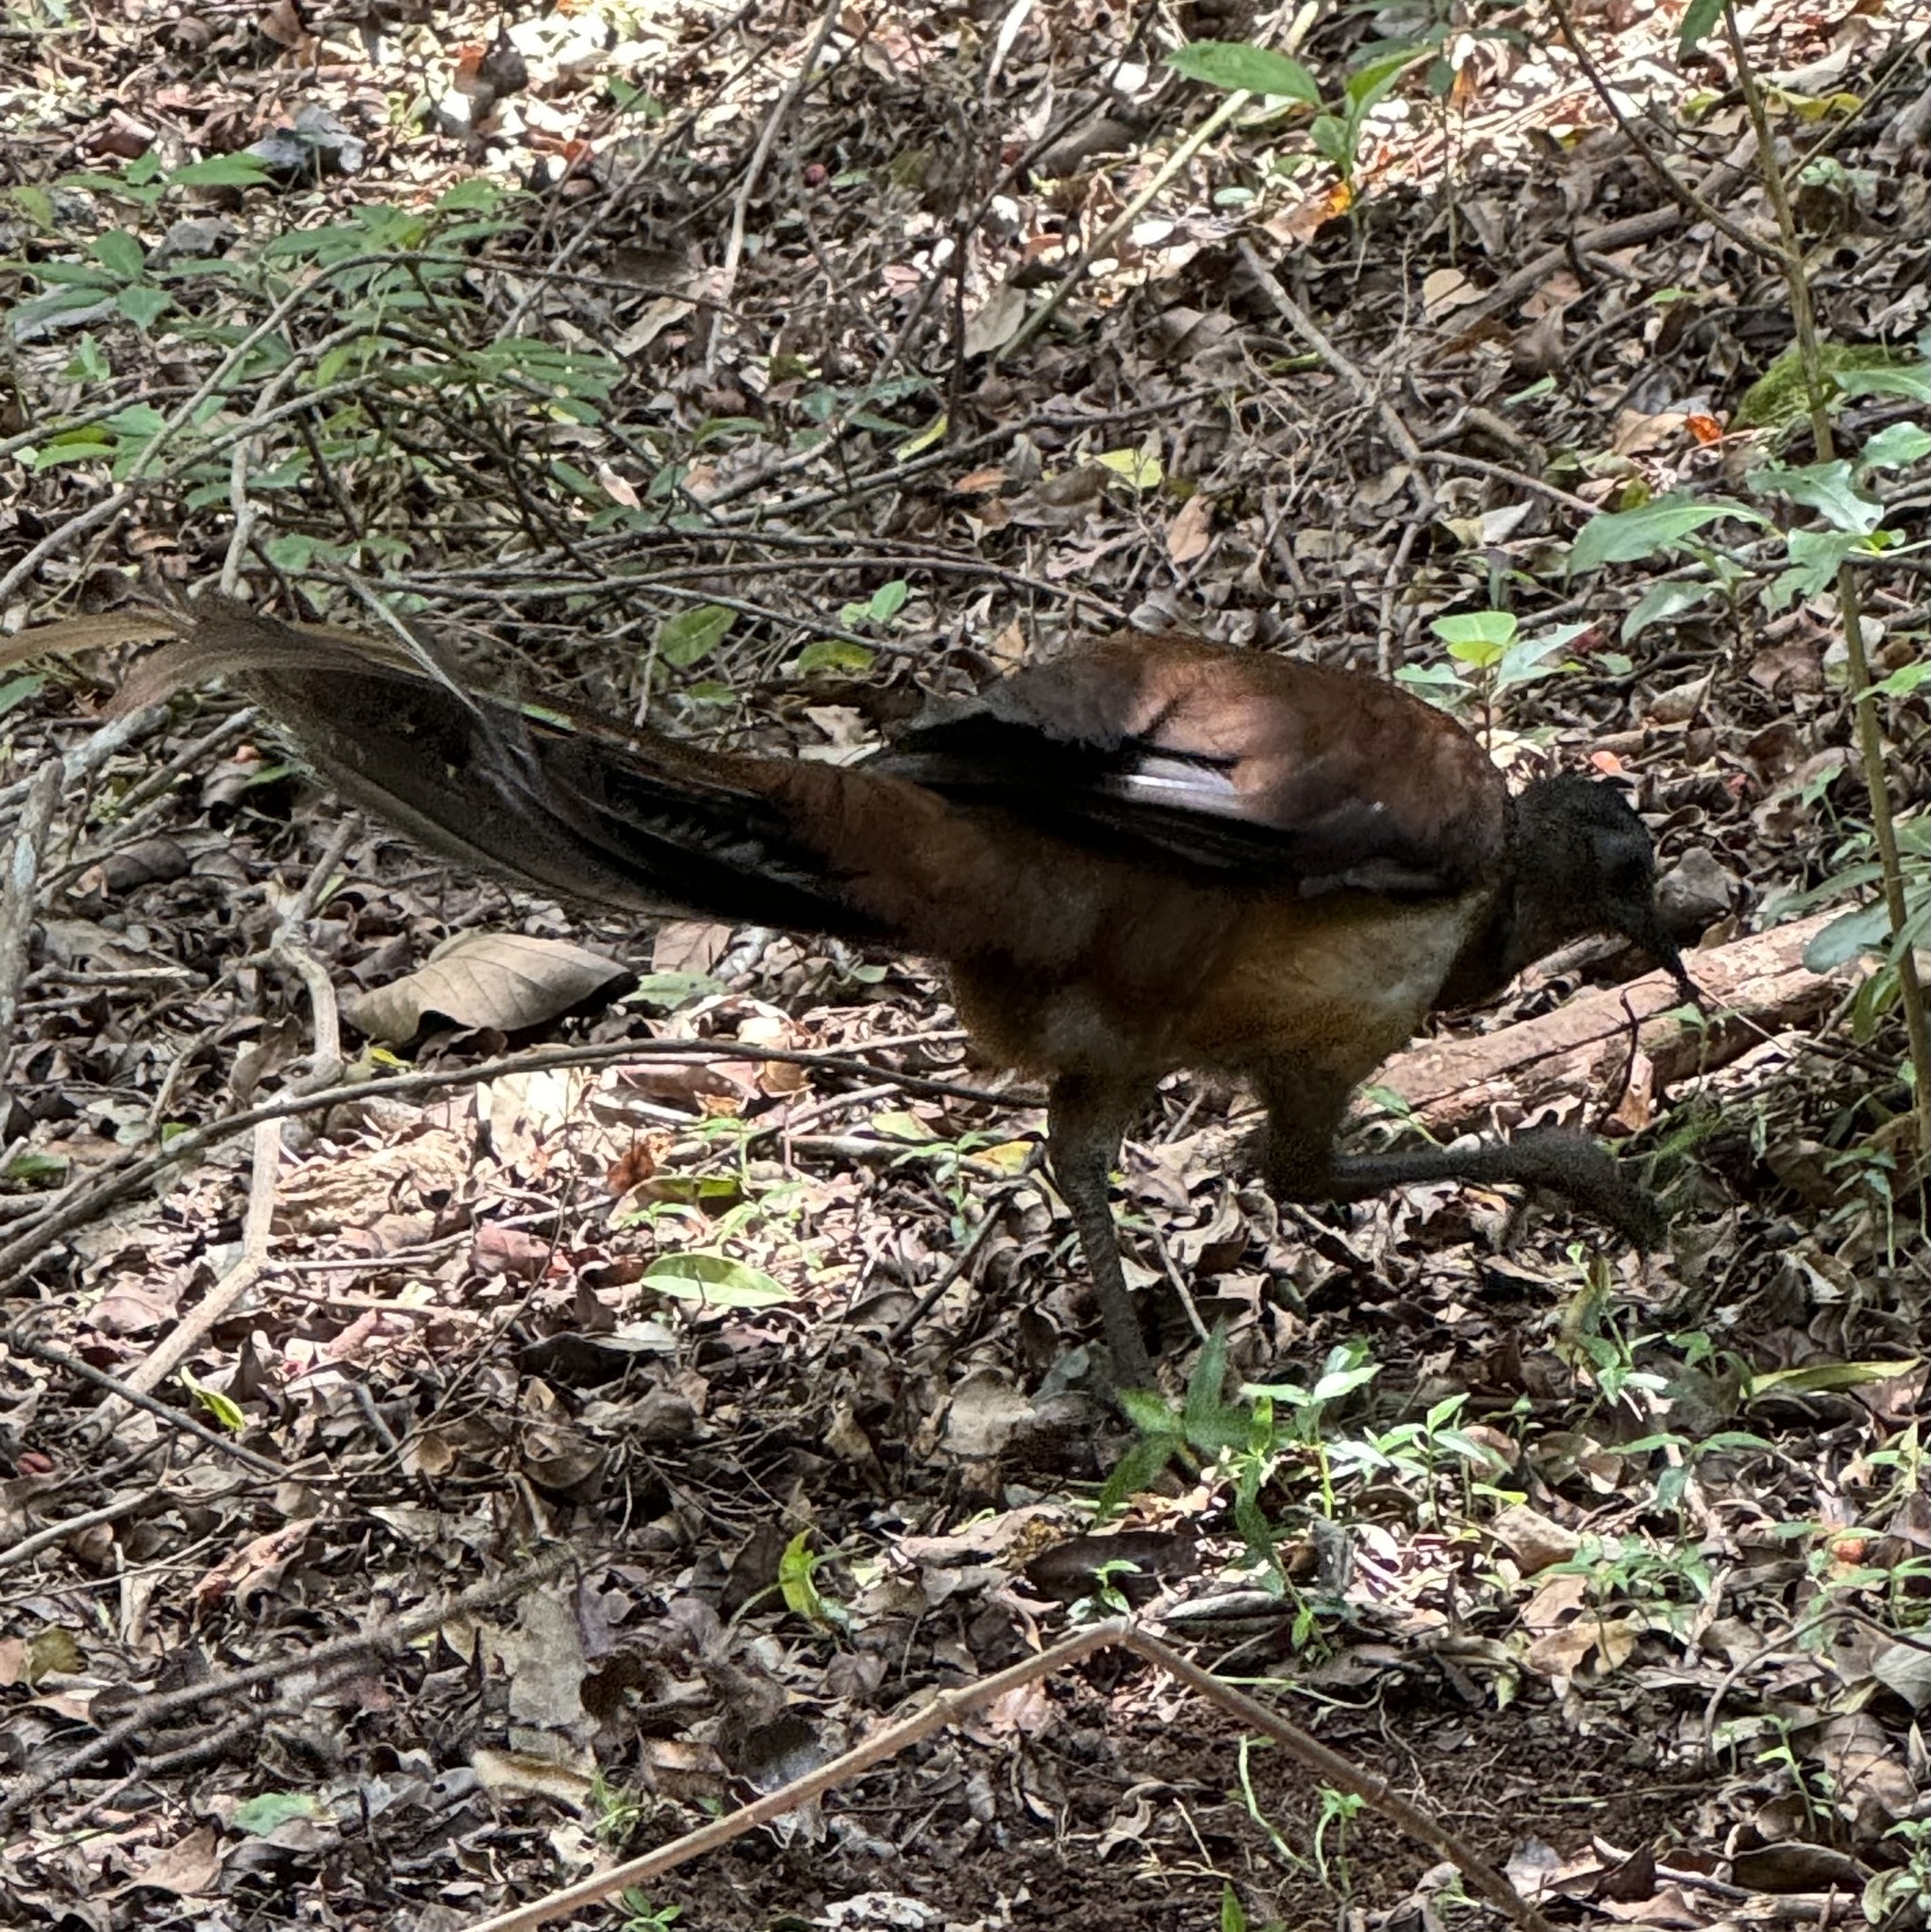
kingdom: Animalia
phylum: Chordata
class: Aves
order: Passeriformes
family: Menuridae
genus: Menura
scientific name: Menura alberti
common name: Albert's lyrebird
